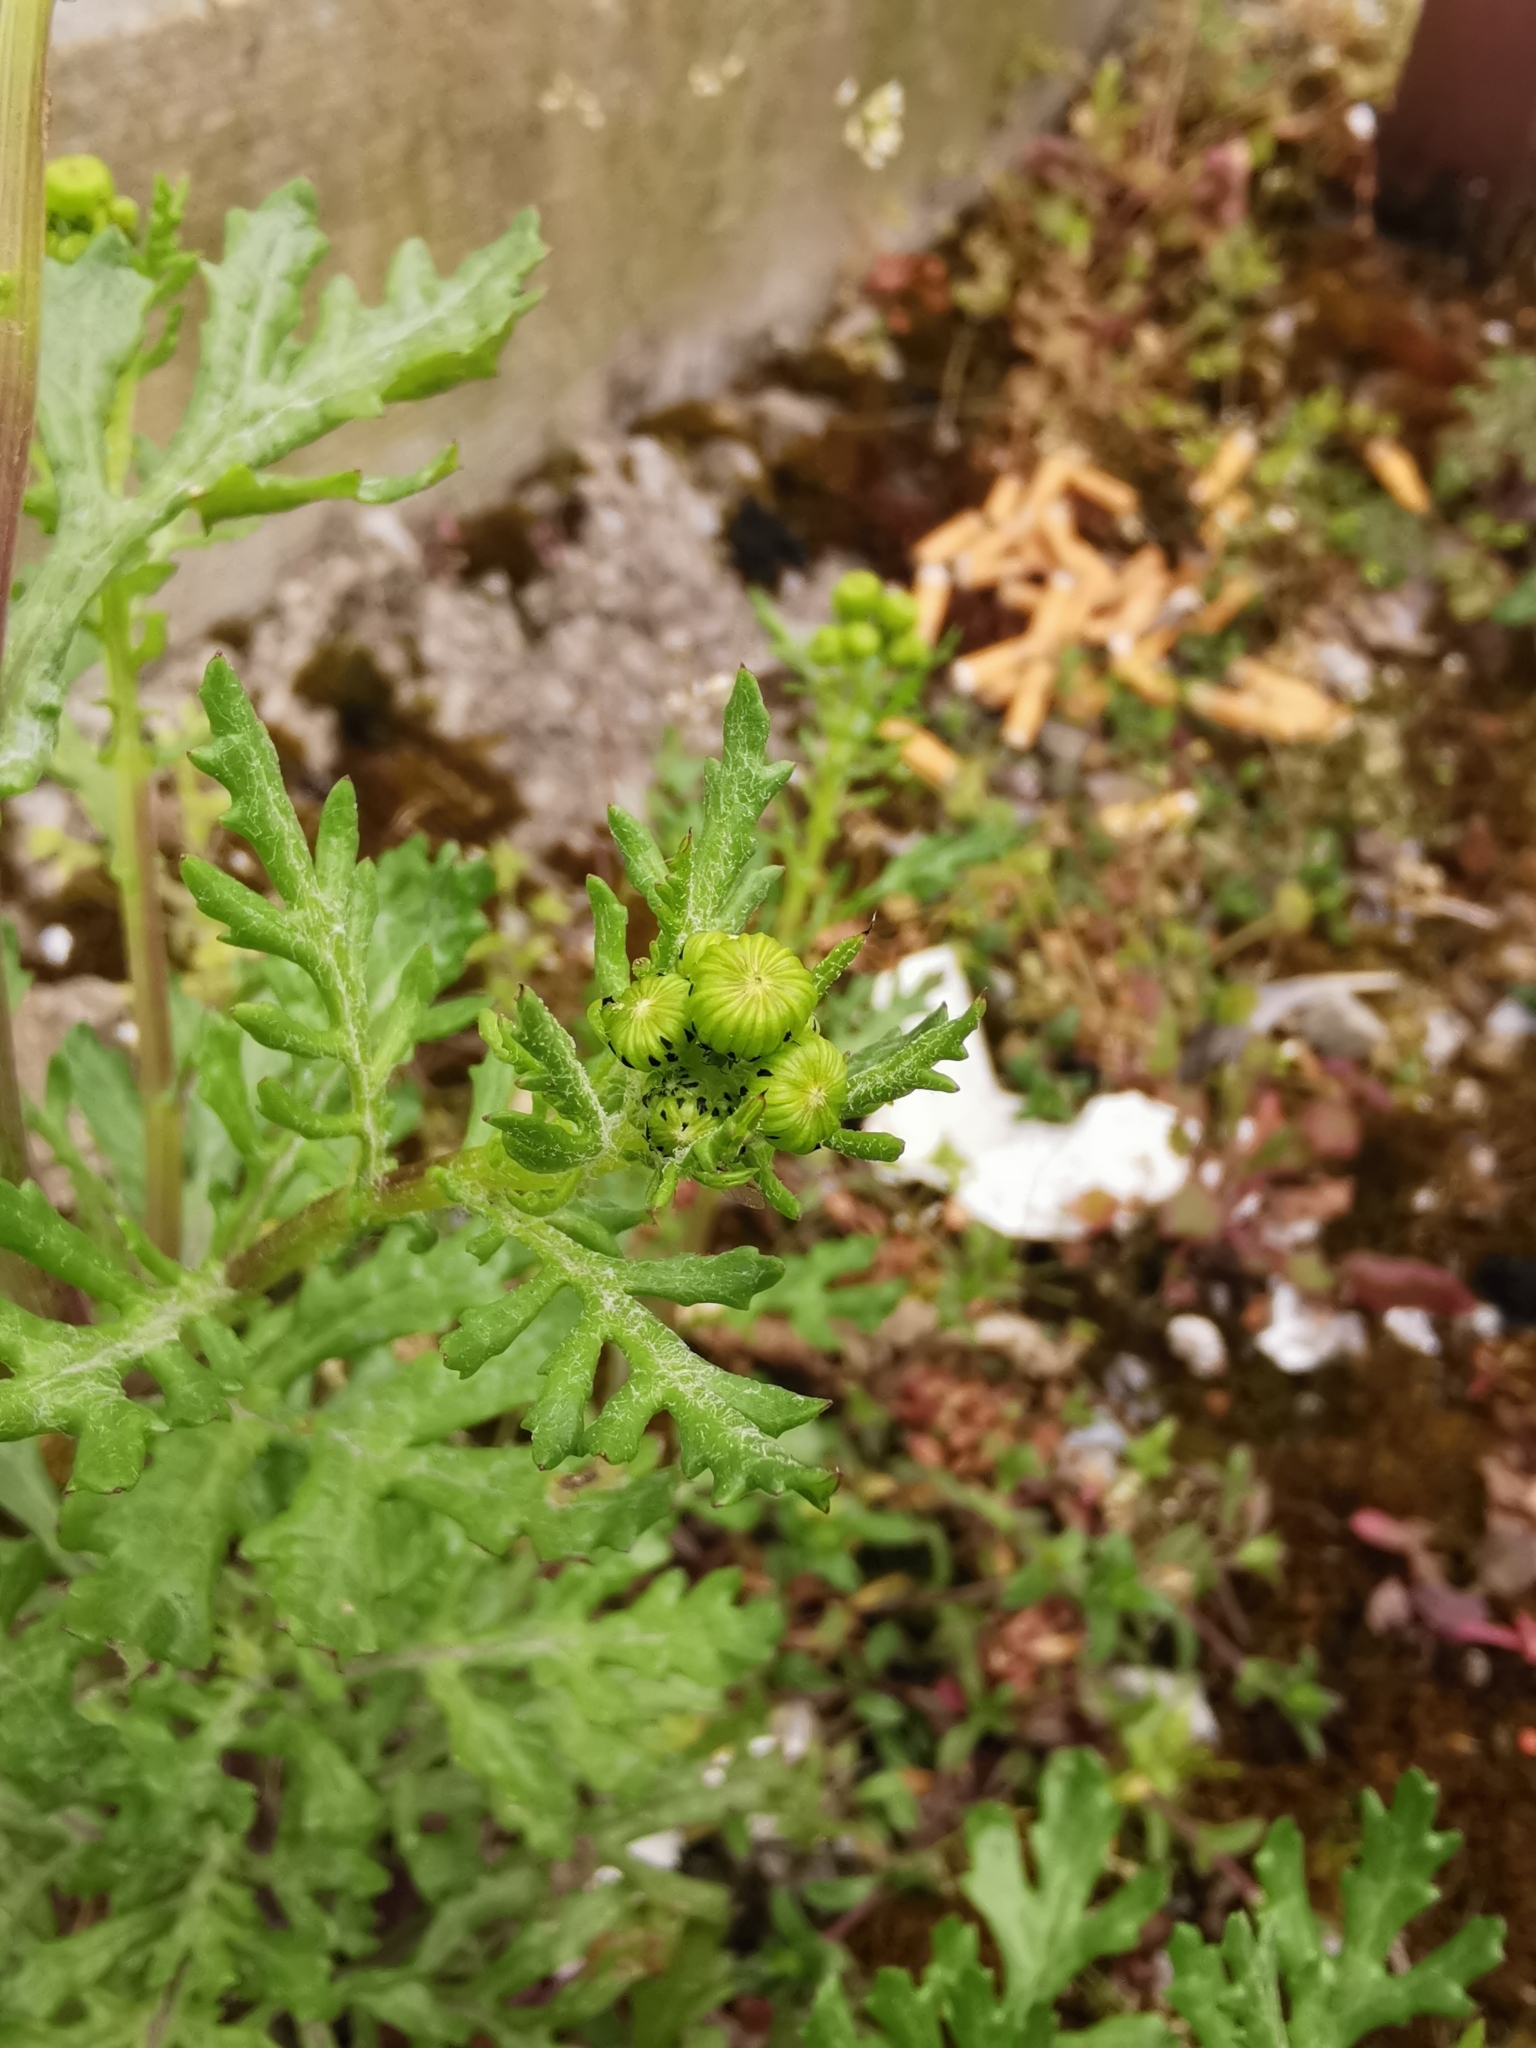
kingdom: Plantae
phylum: Tracheophyta
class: Magnoliopsida
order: Asterales
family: Asteraceae
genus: Senecio
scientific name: Senecio squalidus
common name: Oxford ragwort
